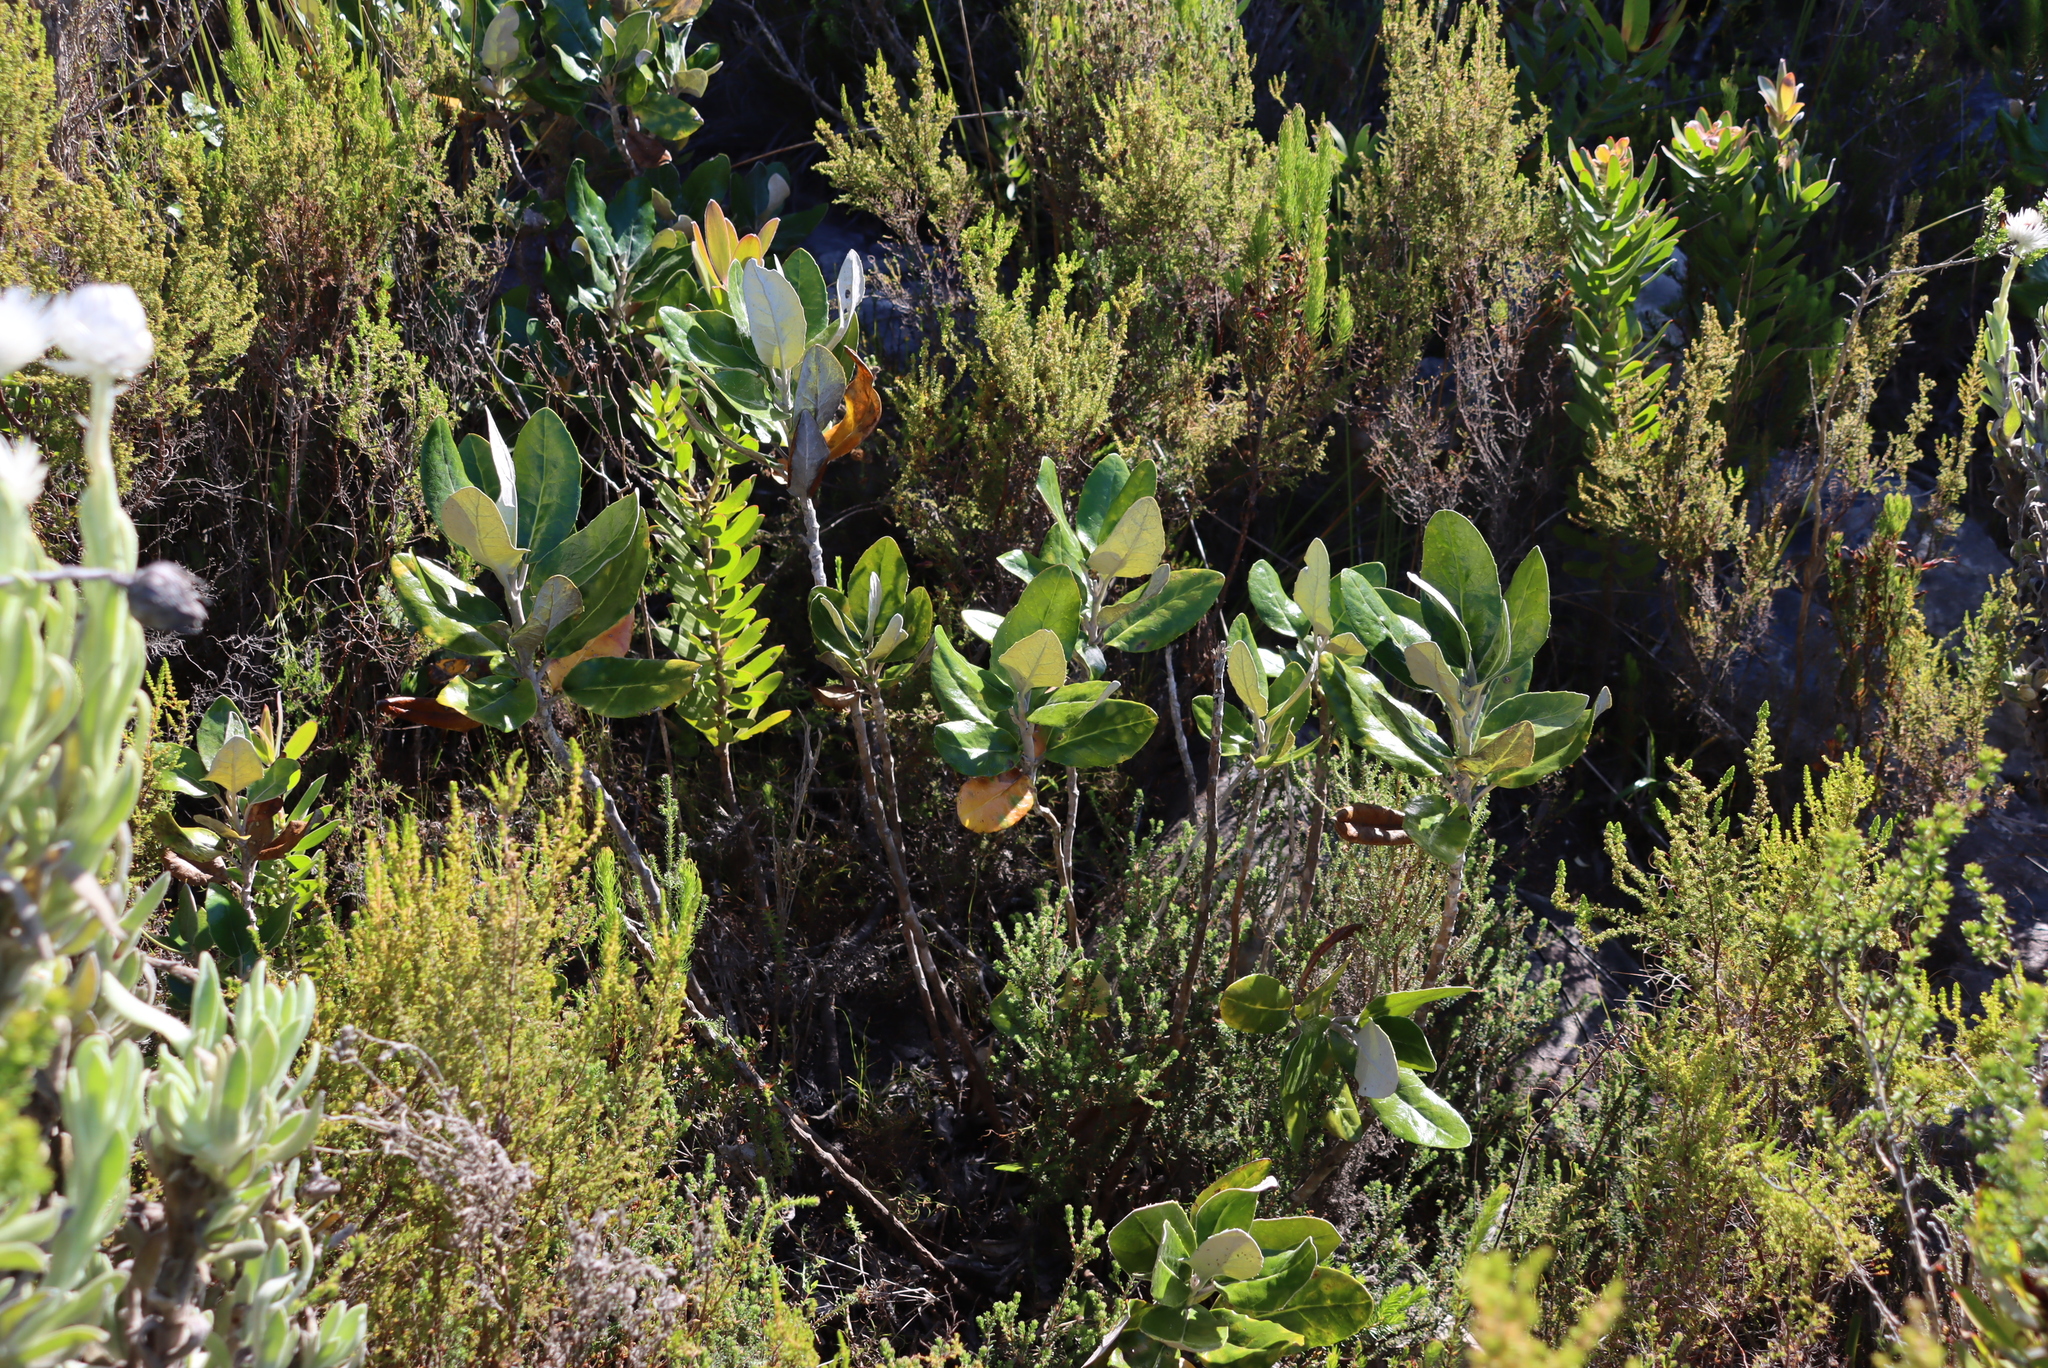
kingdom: Plantae
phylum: Tracheophyta
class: Magnoliopsida
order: Asterales
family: Asteraceae
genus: Capelio
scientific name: Capelio tabularis
